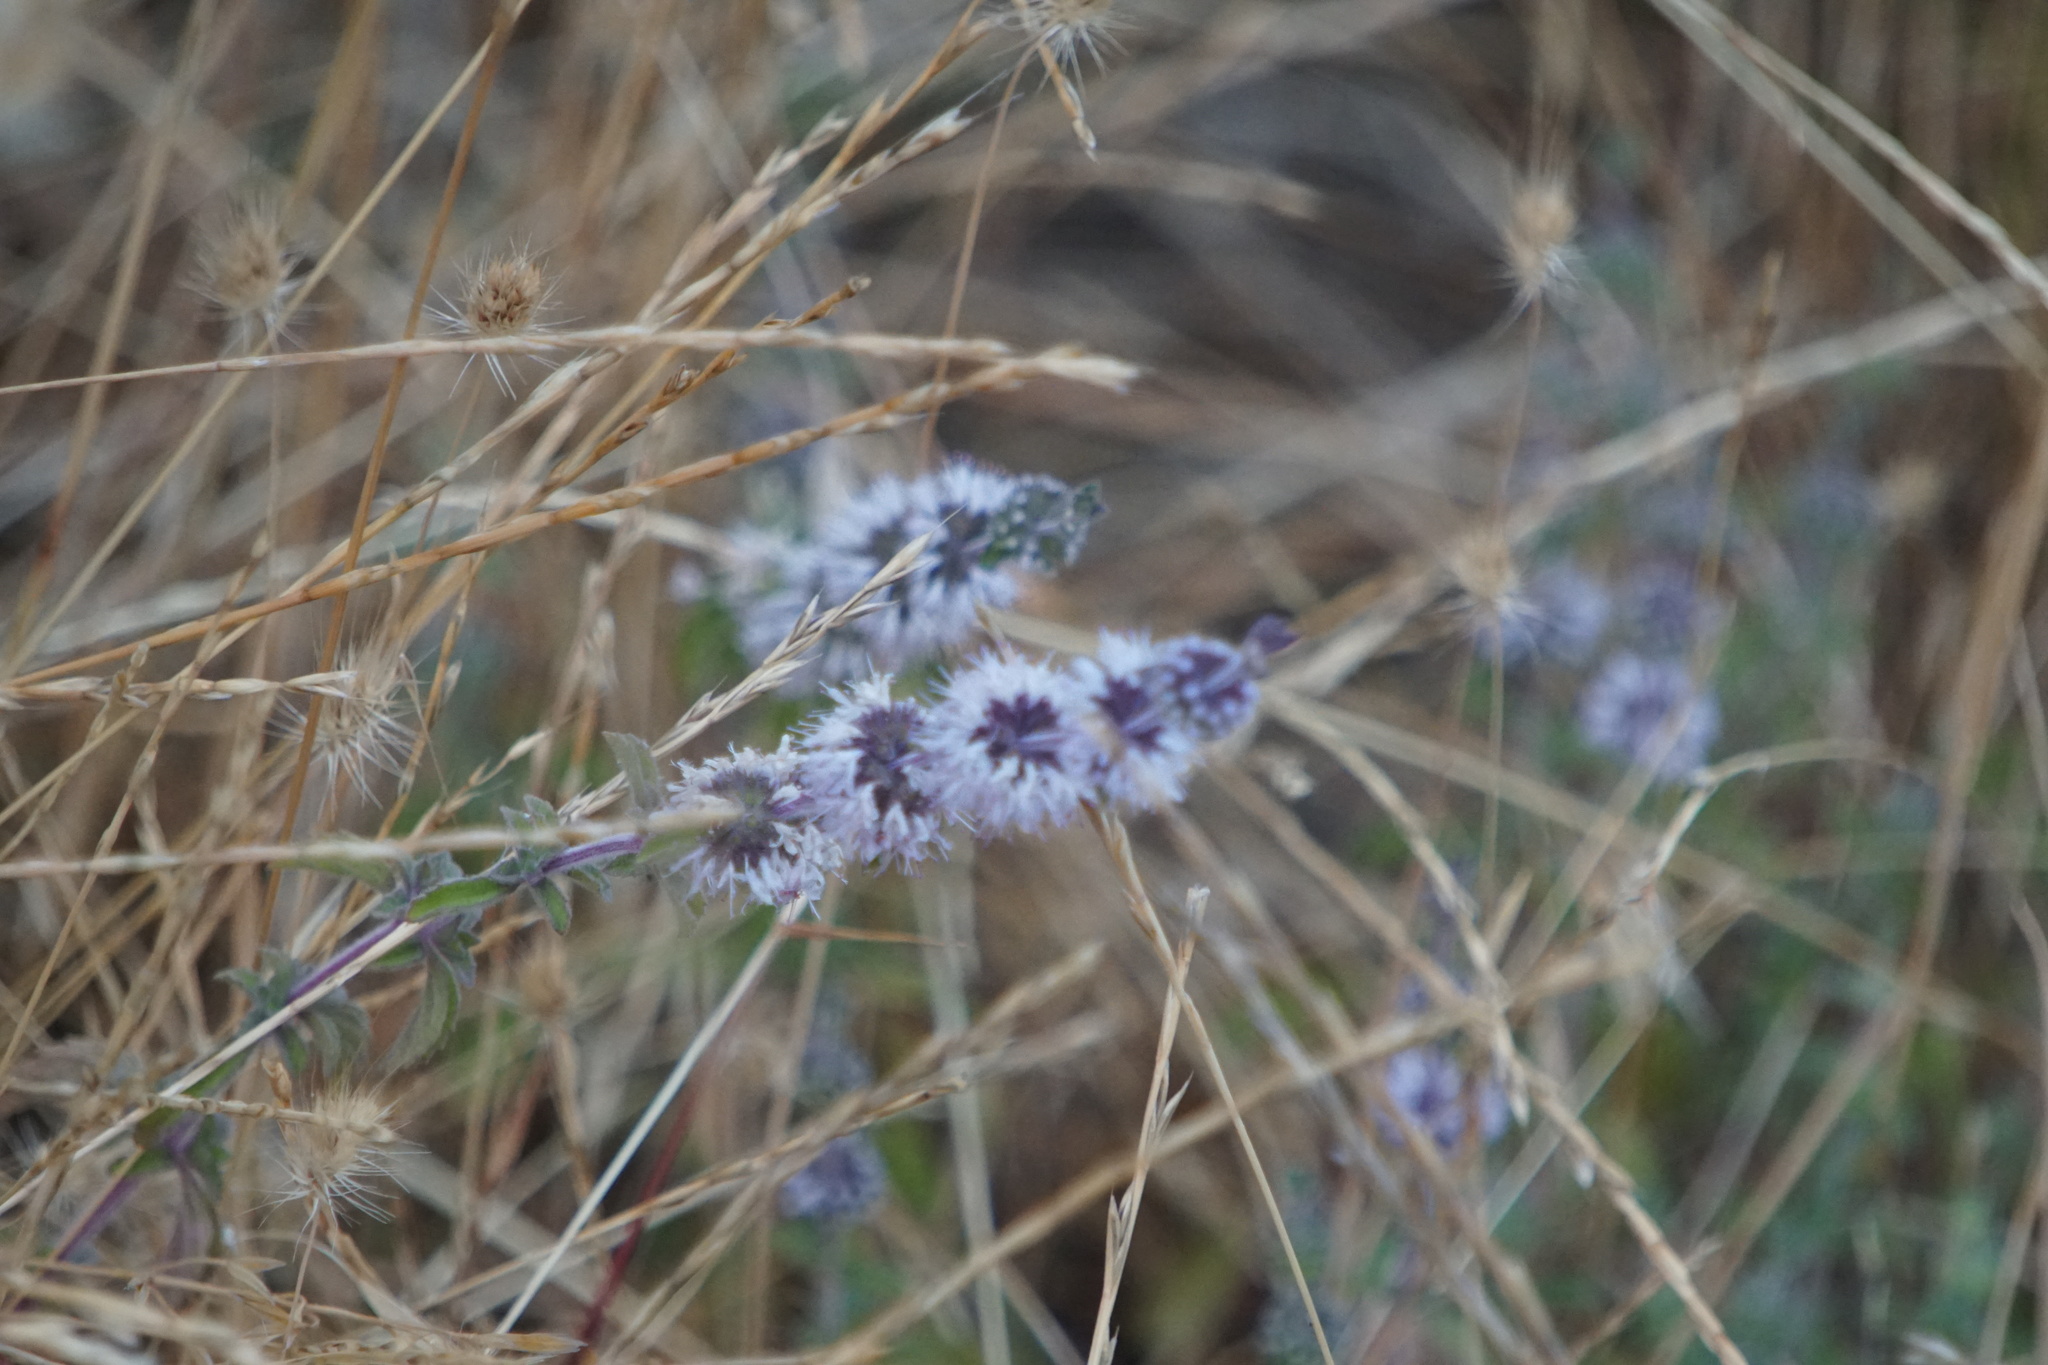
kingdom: Plantae
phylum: Tracheophyta
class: Magnoliopsida
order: Lamiales
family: Lamiaceae
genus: Mentha
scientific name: Mentha pulegium
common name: Pennyroyal
